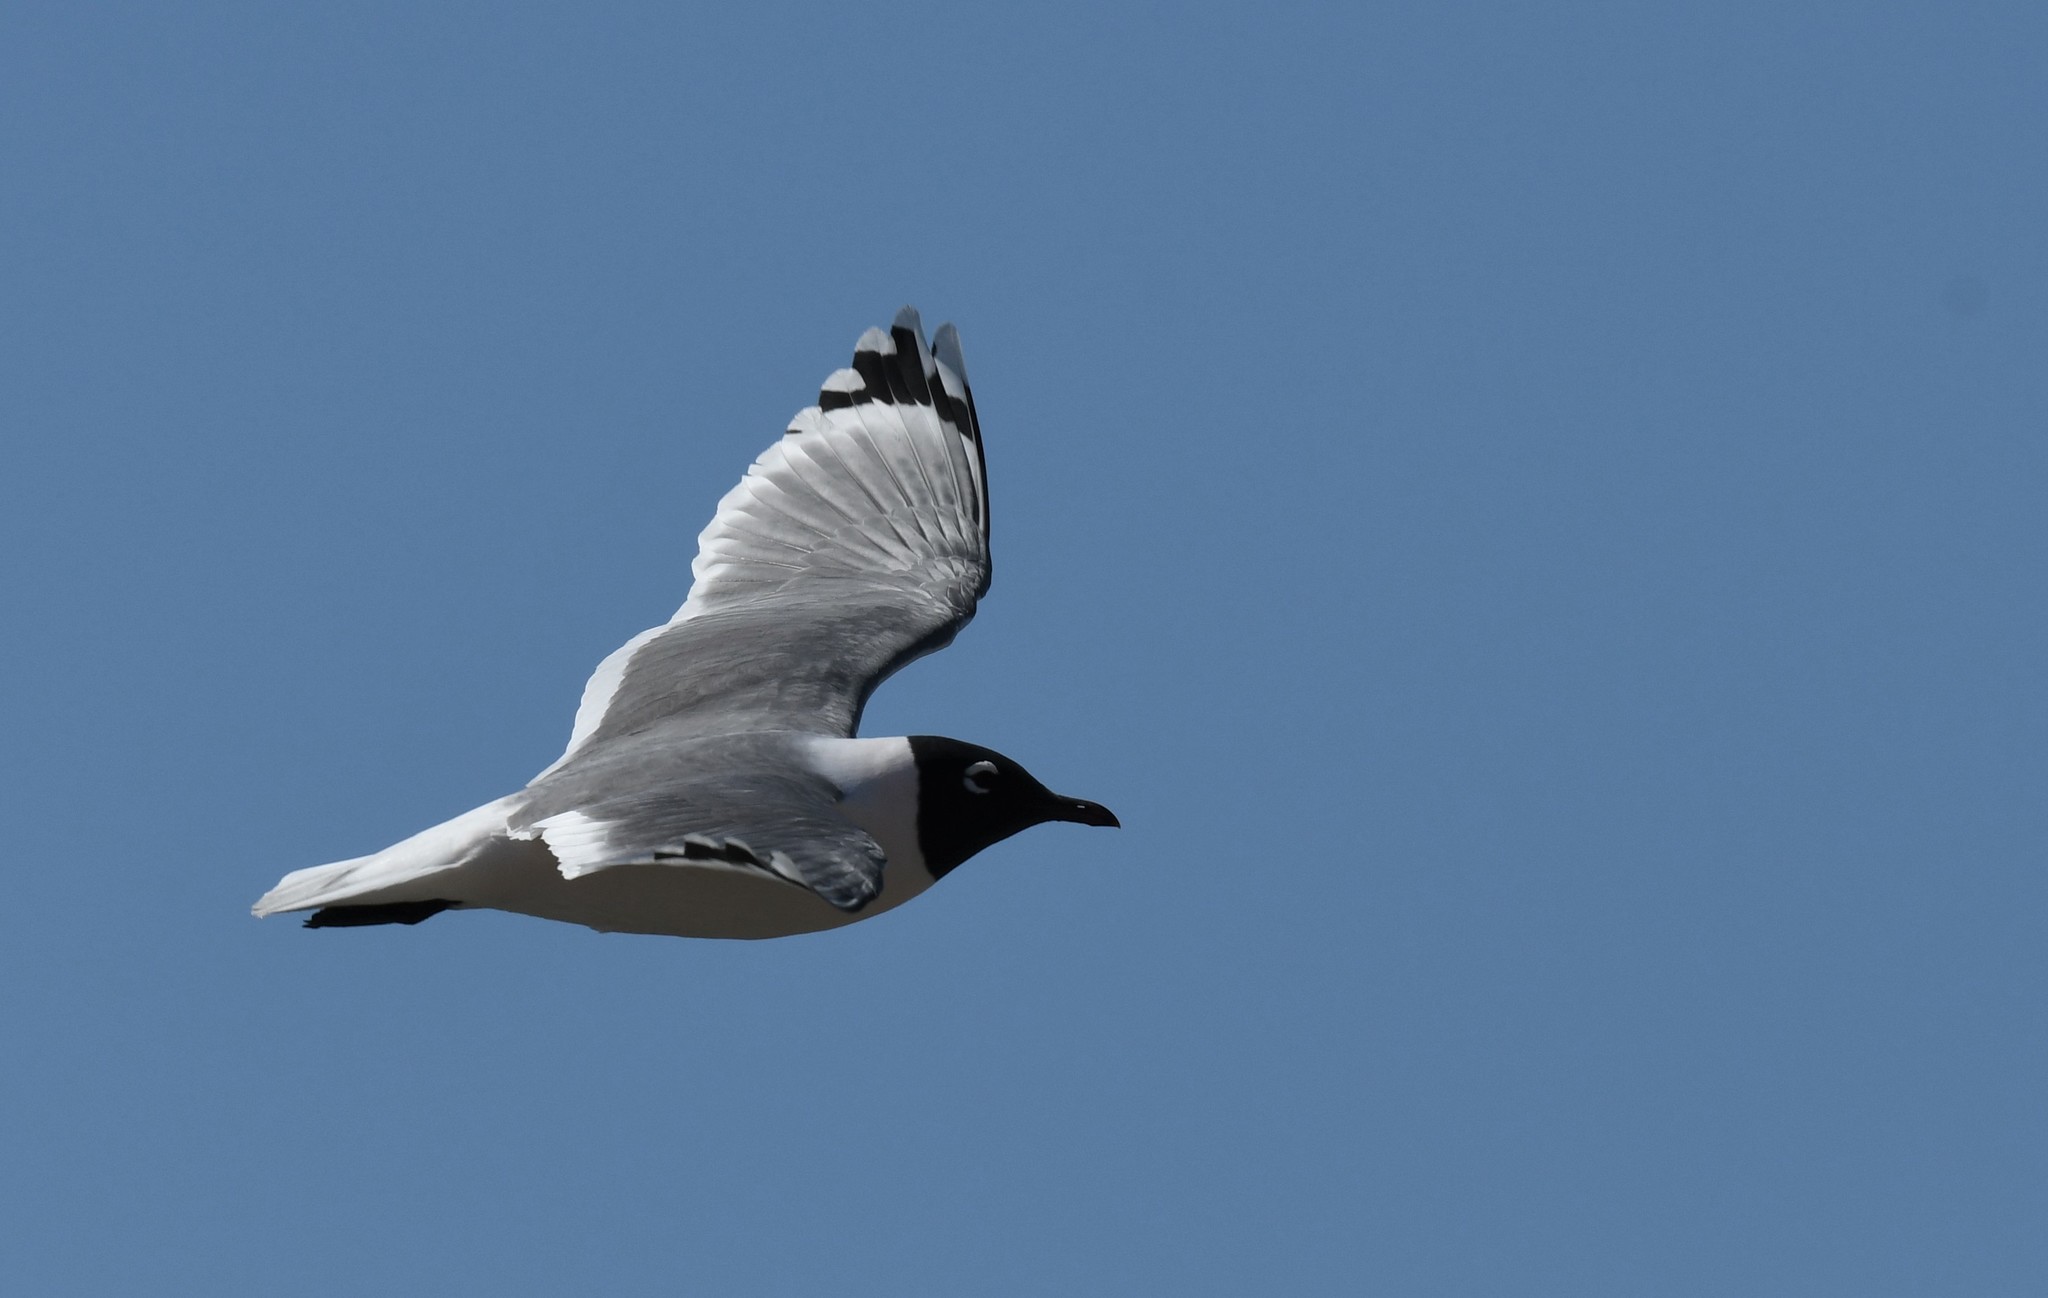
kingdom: Animalia
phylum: Chordata
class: Aves
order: Charadriiformes
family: Laridae
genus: Leucophaeus
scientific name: Leucophaeus pipixcan
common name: Franklin's gull
